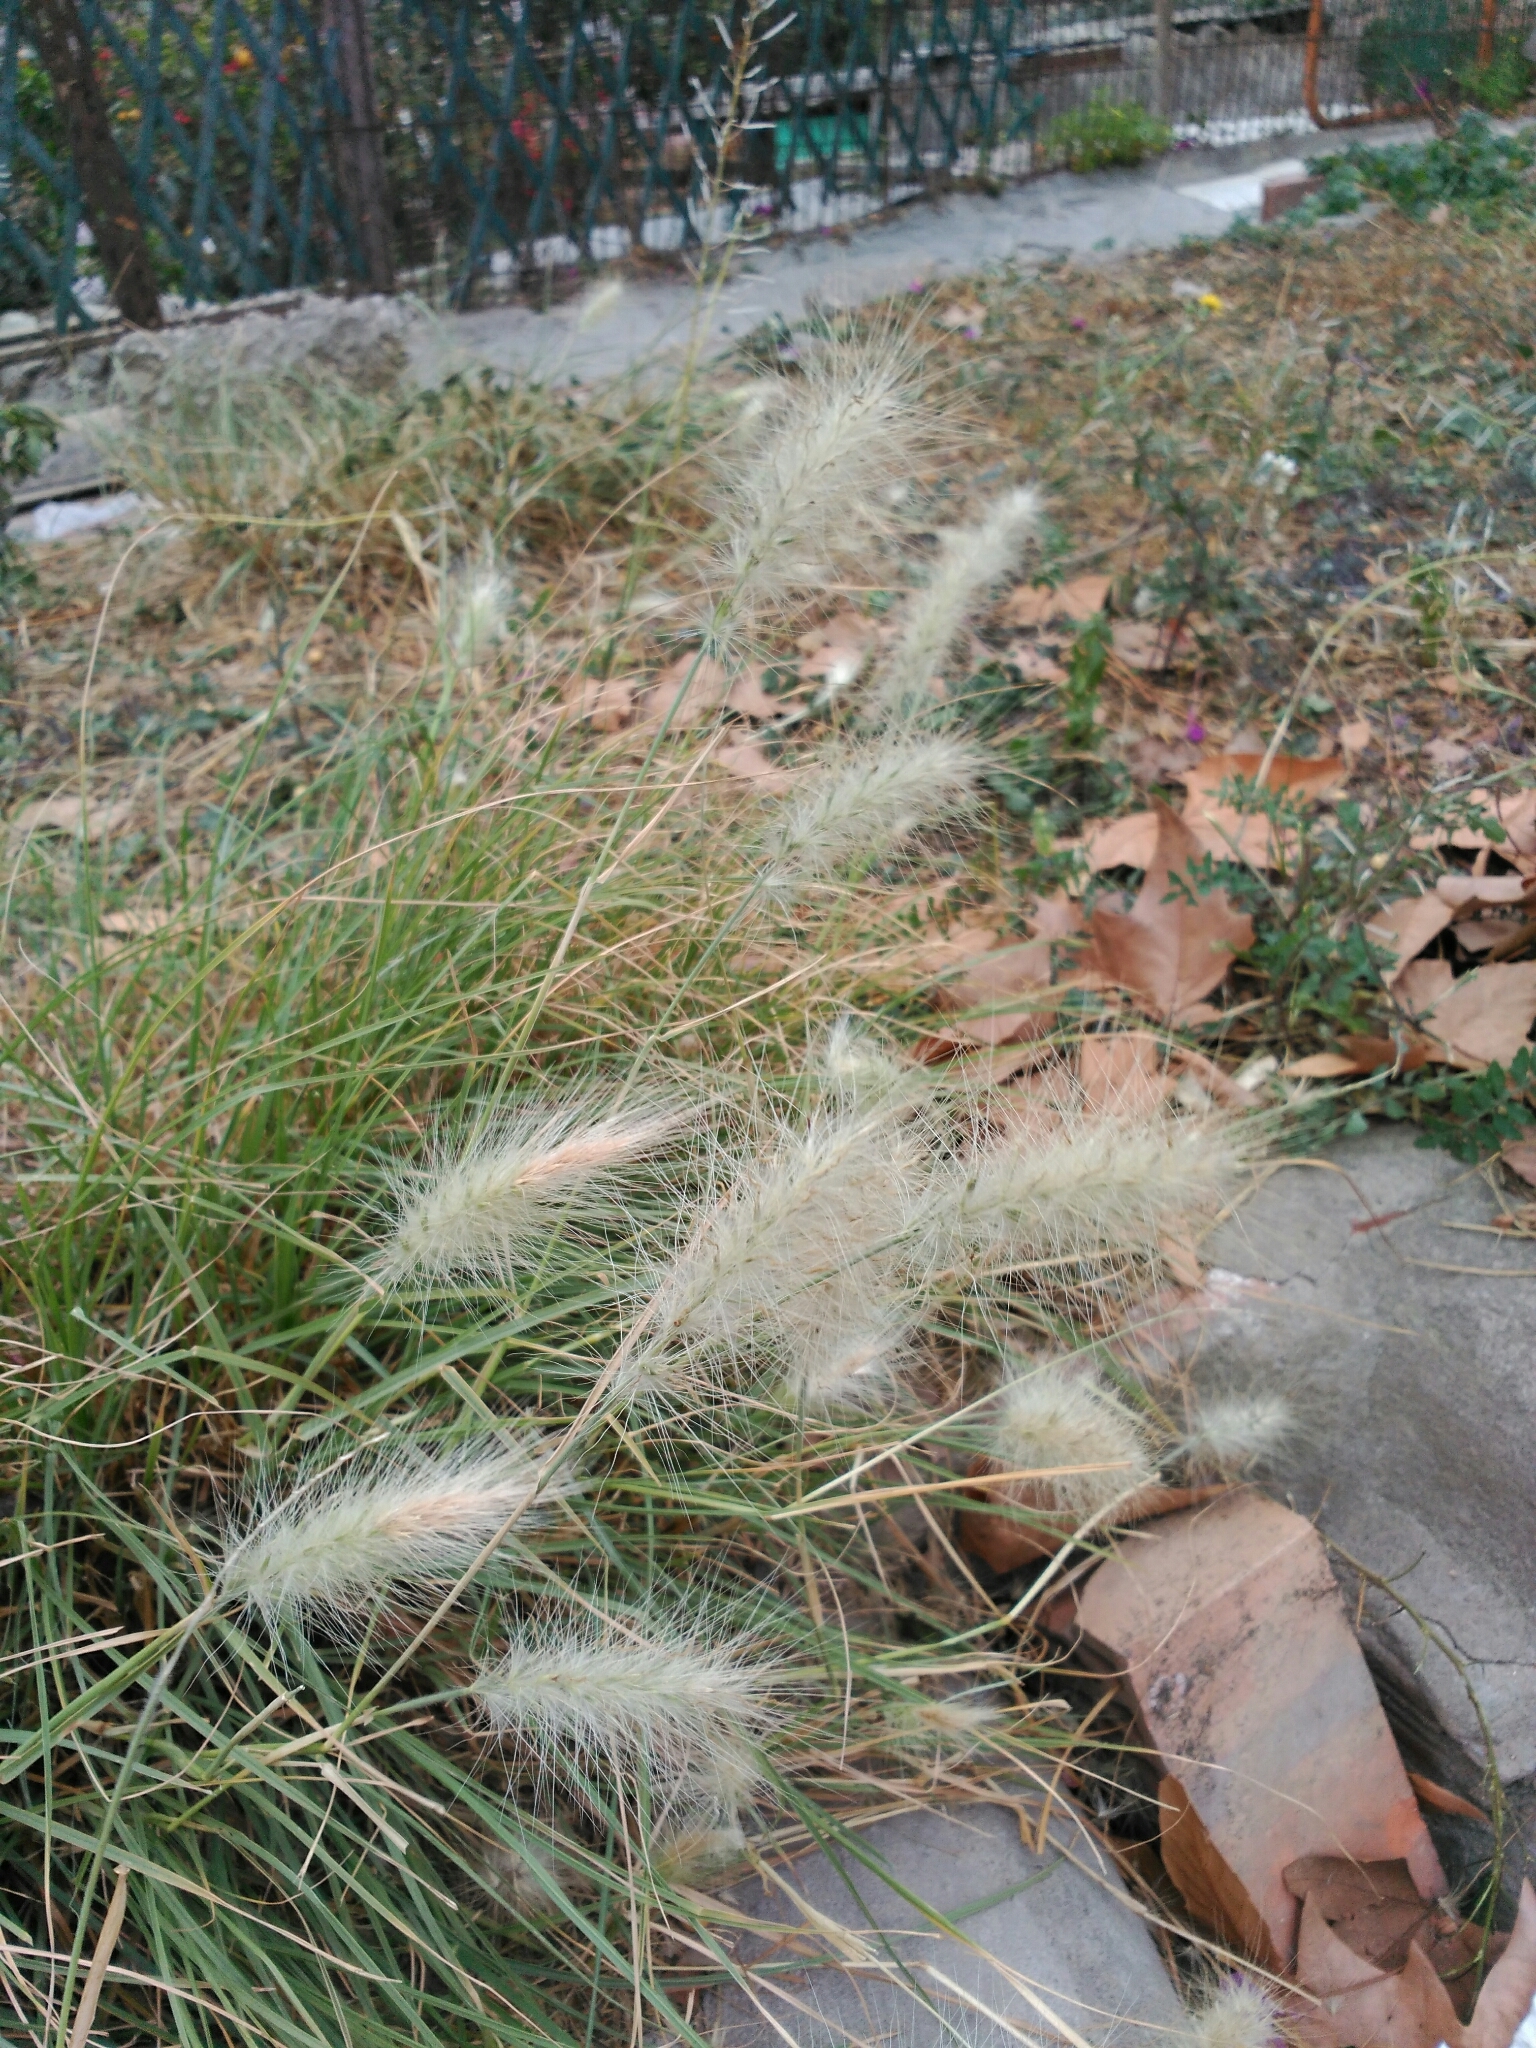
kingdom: Plantae
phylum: Tracheophyta
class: Liliopsida
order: Poales
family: Poaceae
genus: Cenchrus
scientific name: Cenchrus longisetus
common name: Feathertop
